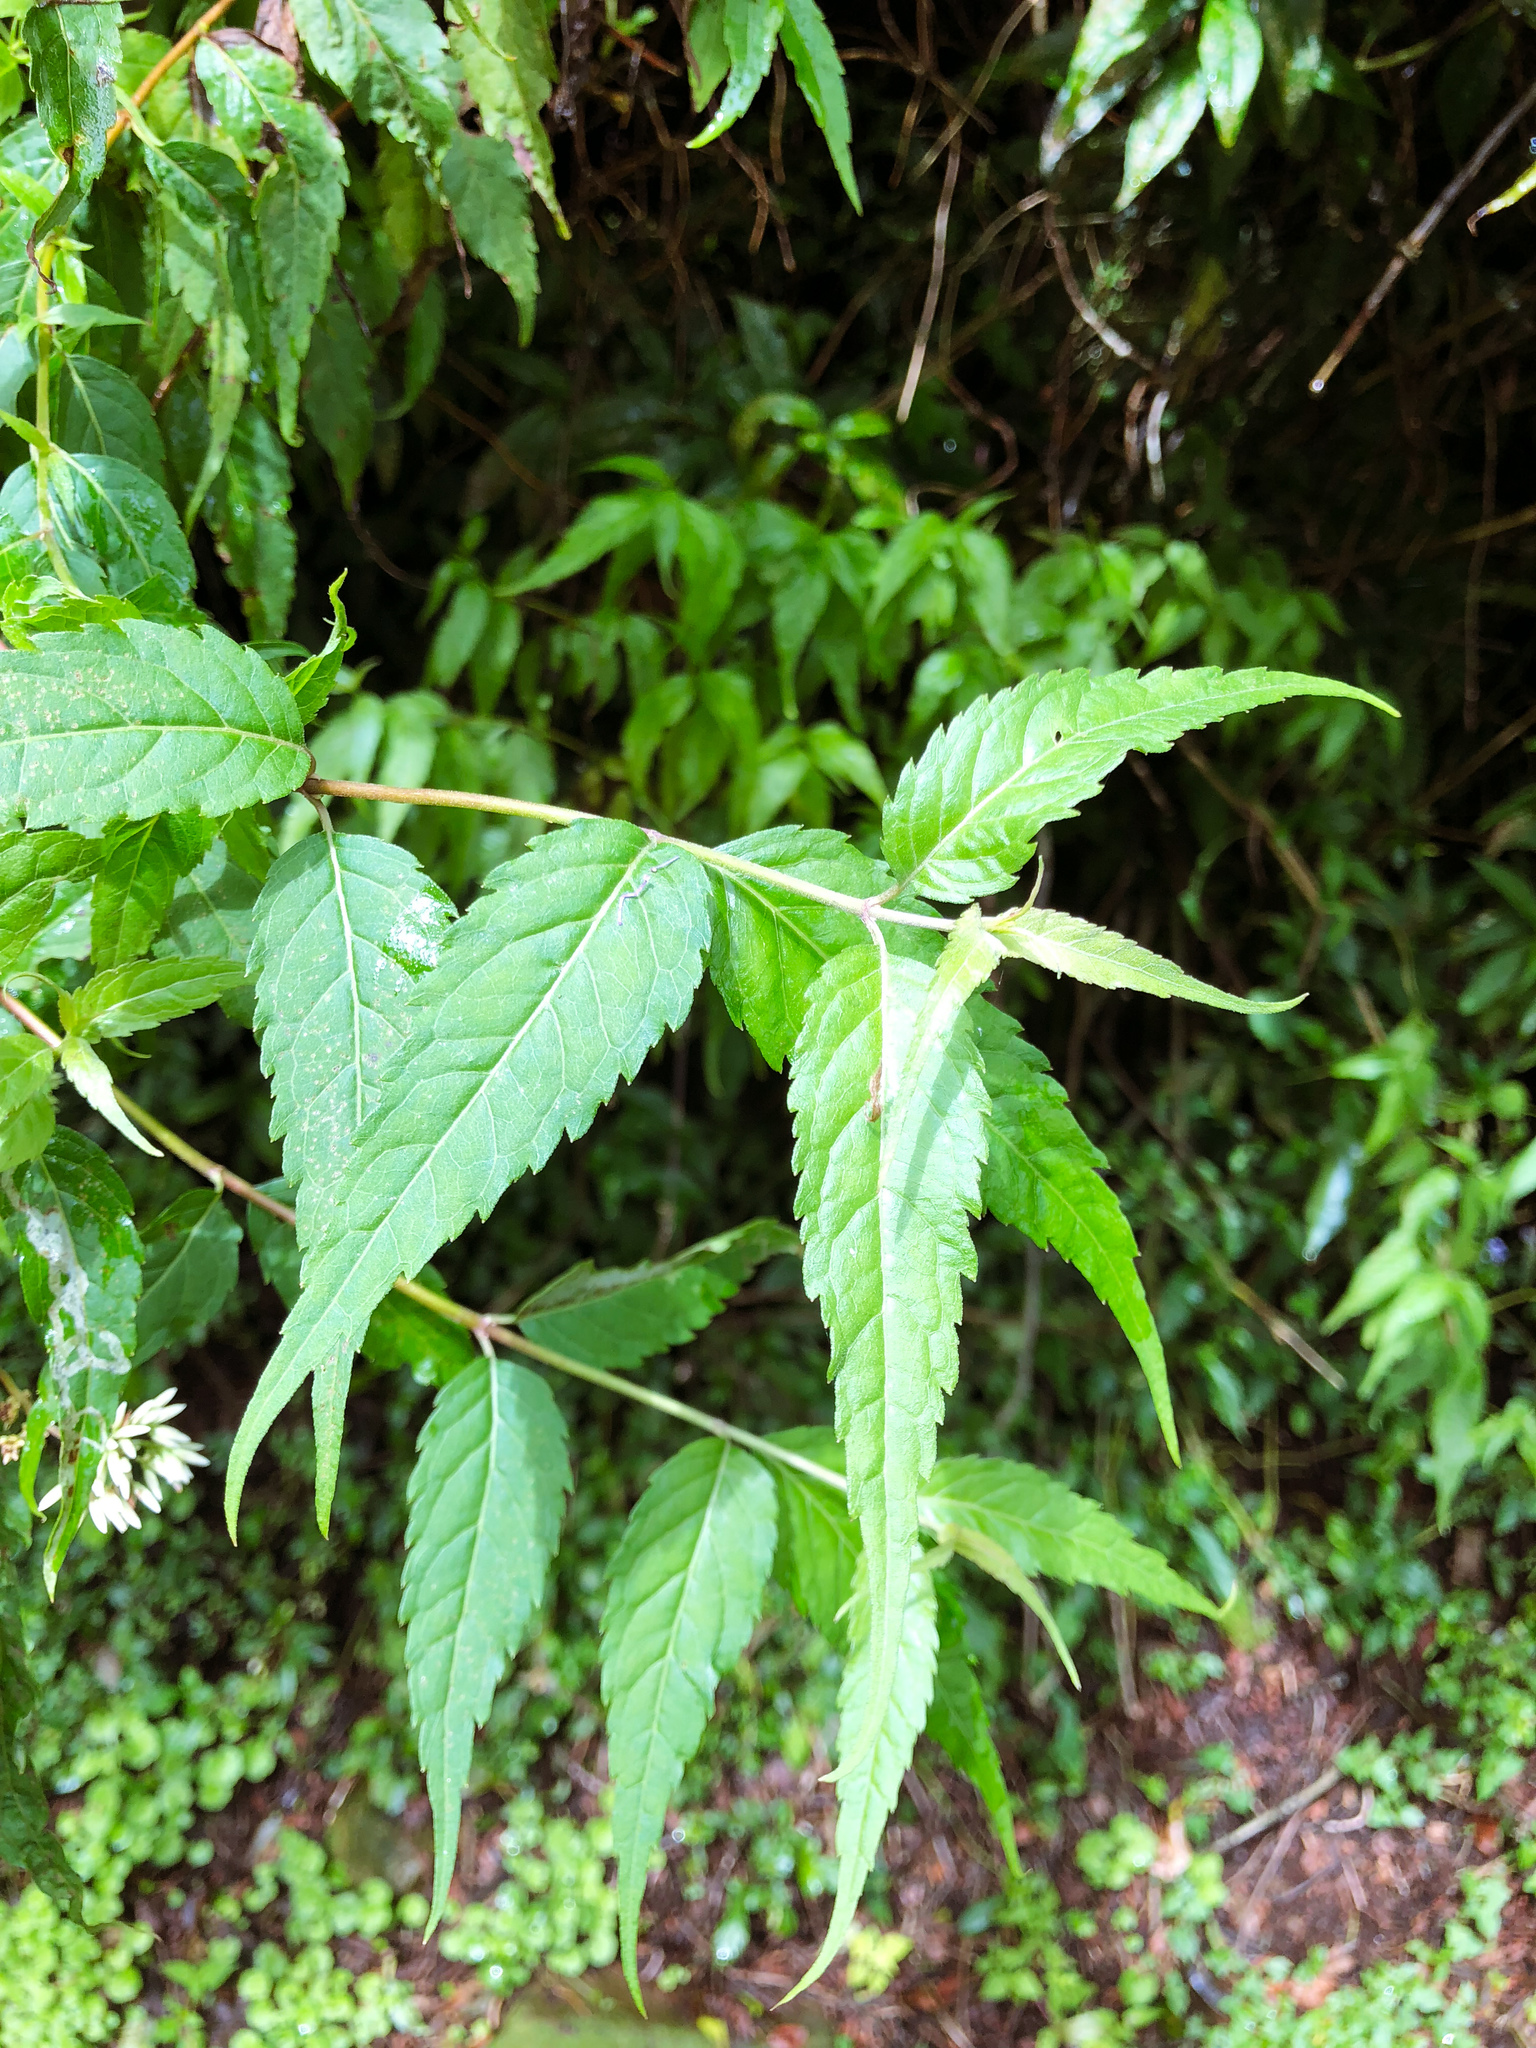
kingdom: Plantae
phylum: Tracheophyta
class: Magnoliopsida
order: Asterales
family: Asteraceae
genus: Eupatorium
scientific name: Eupatorium tashiroi
